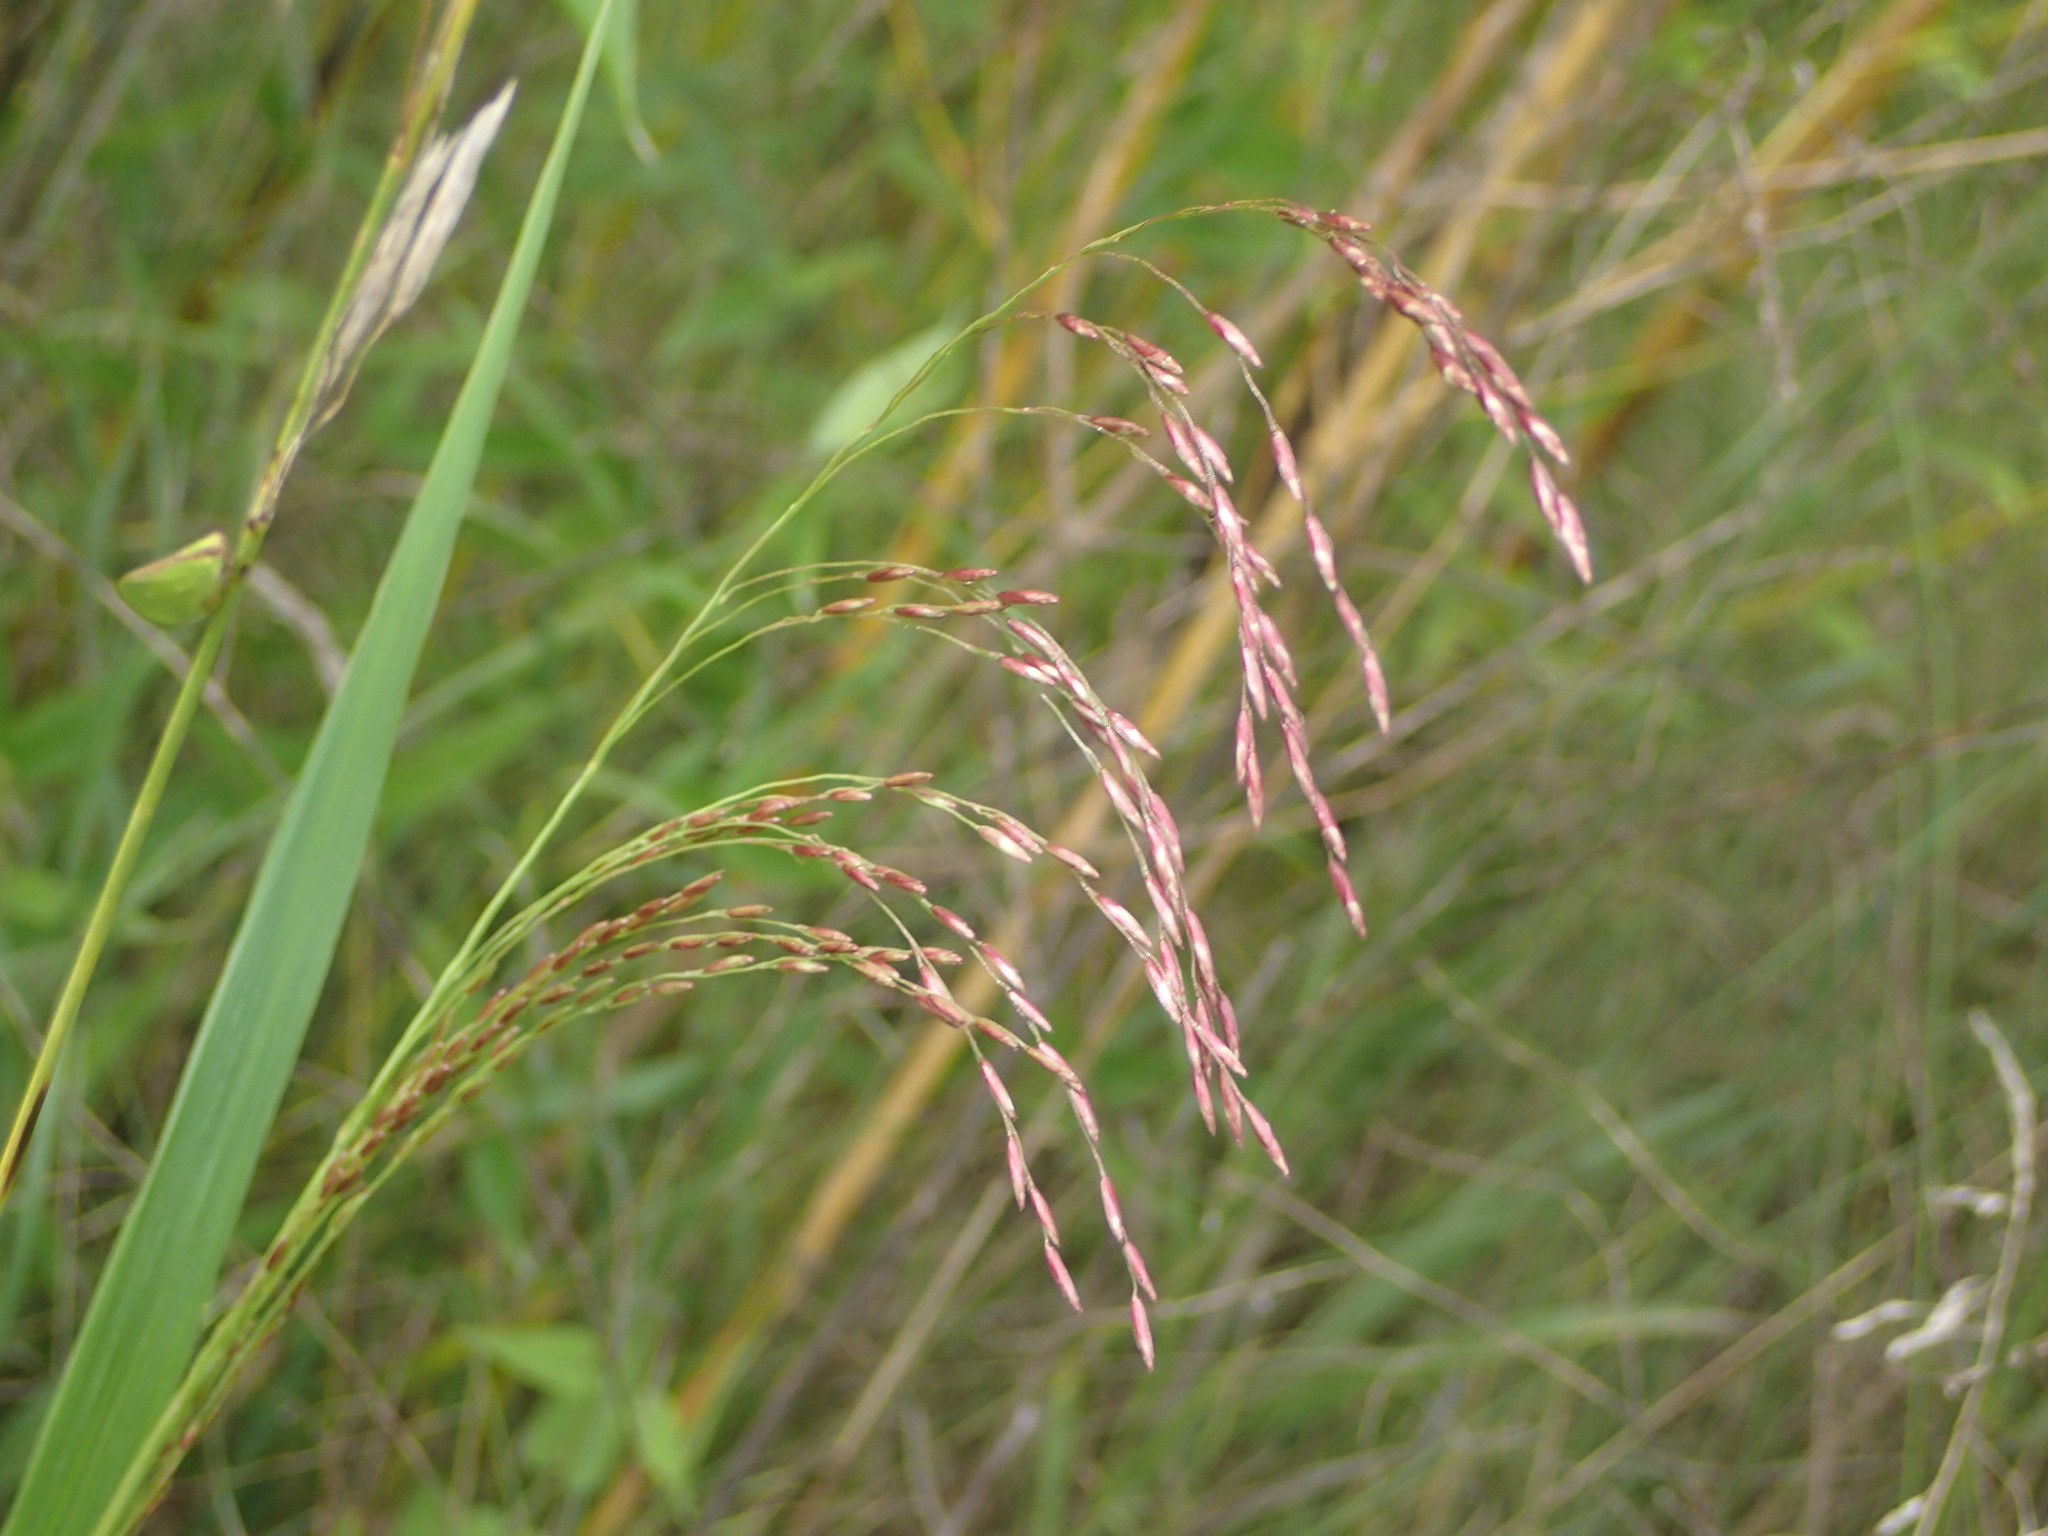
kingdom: Plantae
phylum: Tracheophyta
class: Liliopsida
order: Poales
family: Poaceae
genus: Tridens
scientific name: Tridens flavus
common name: Purpletop
